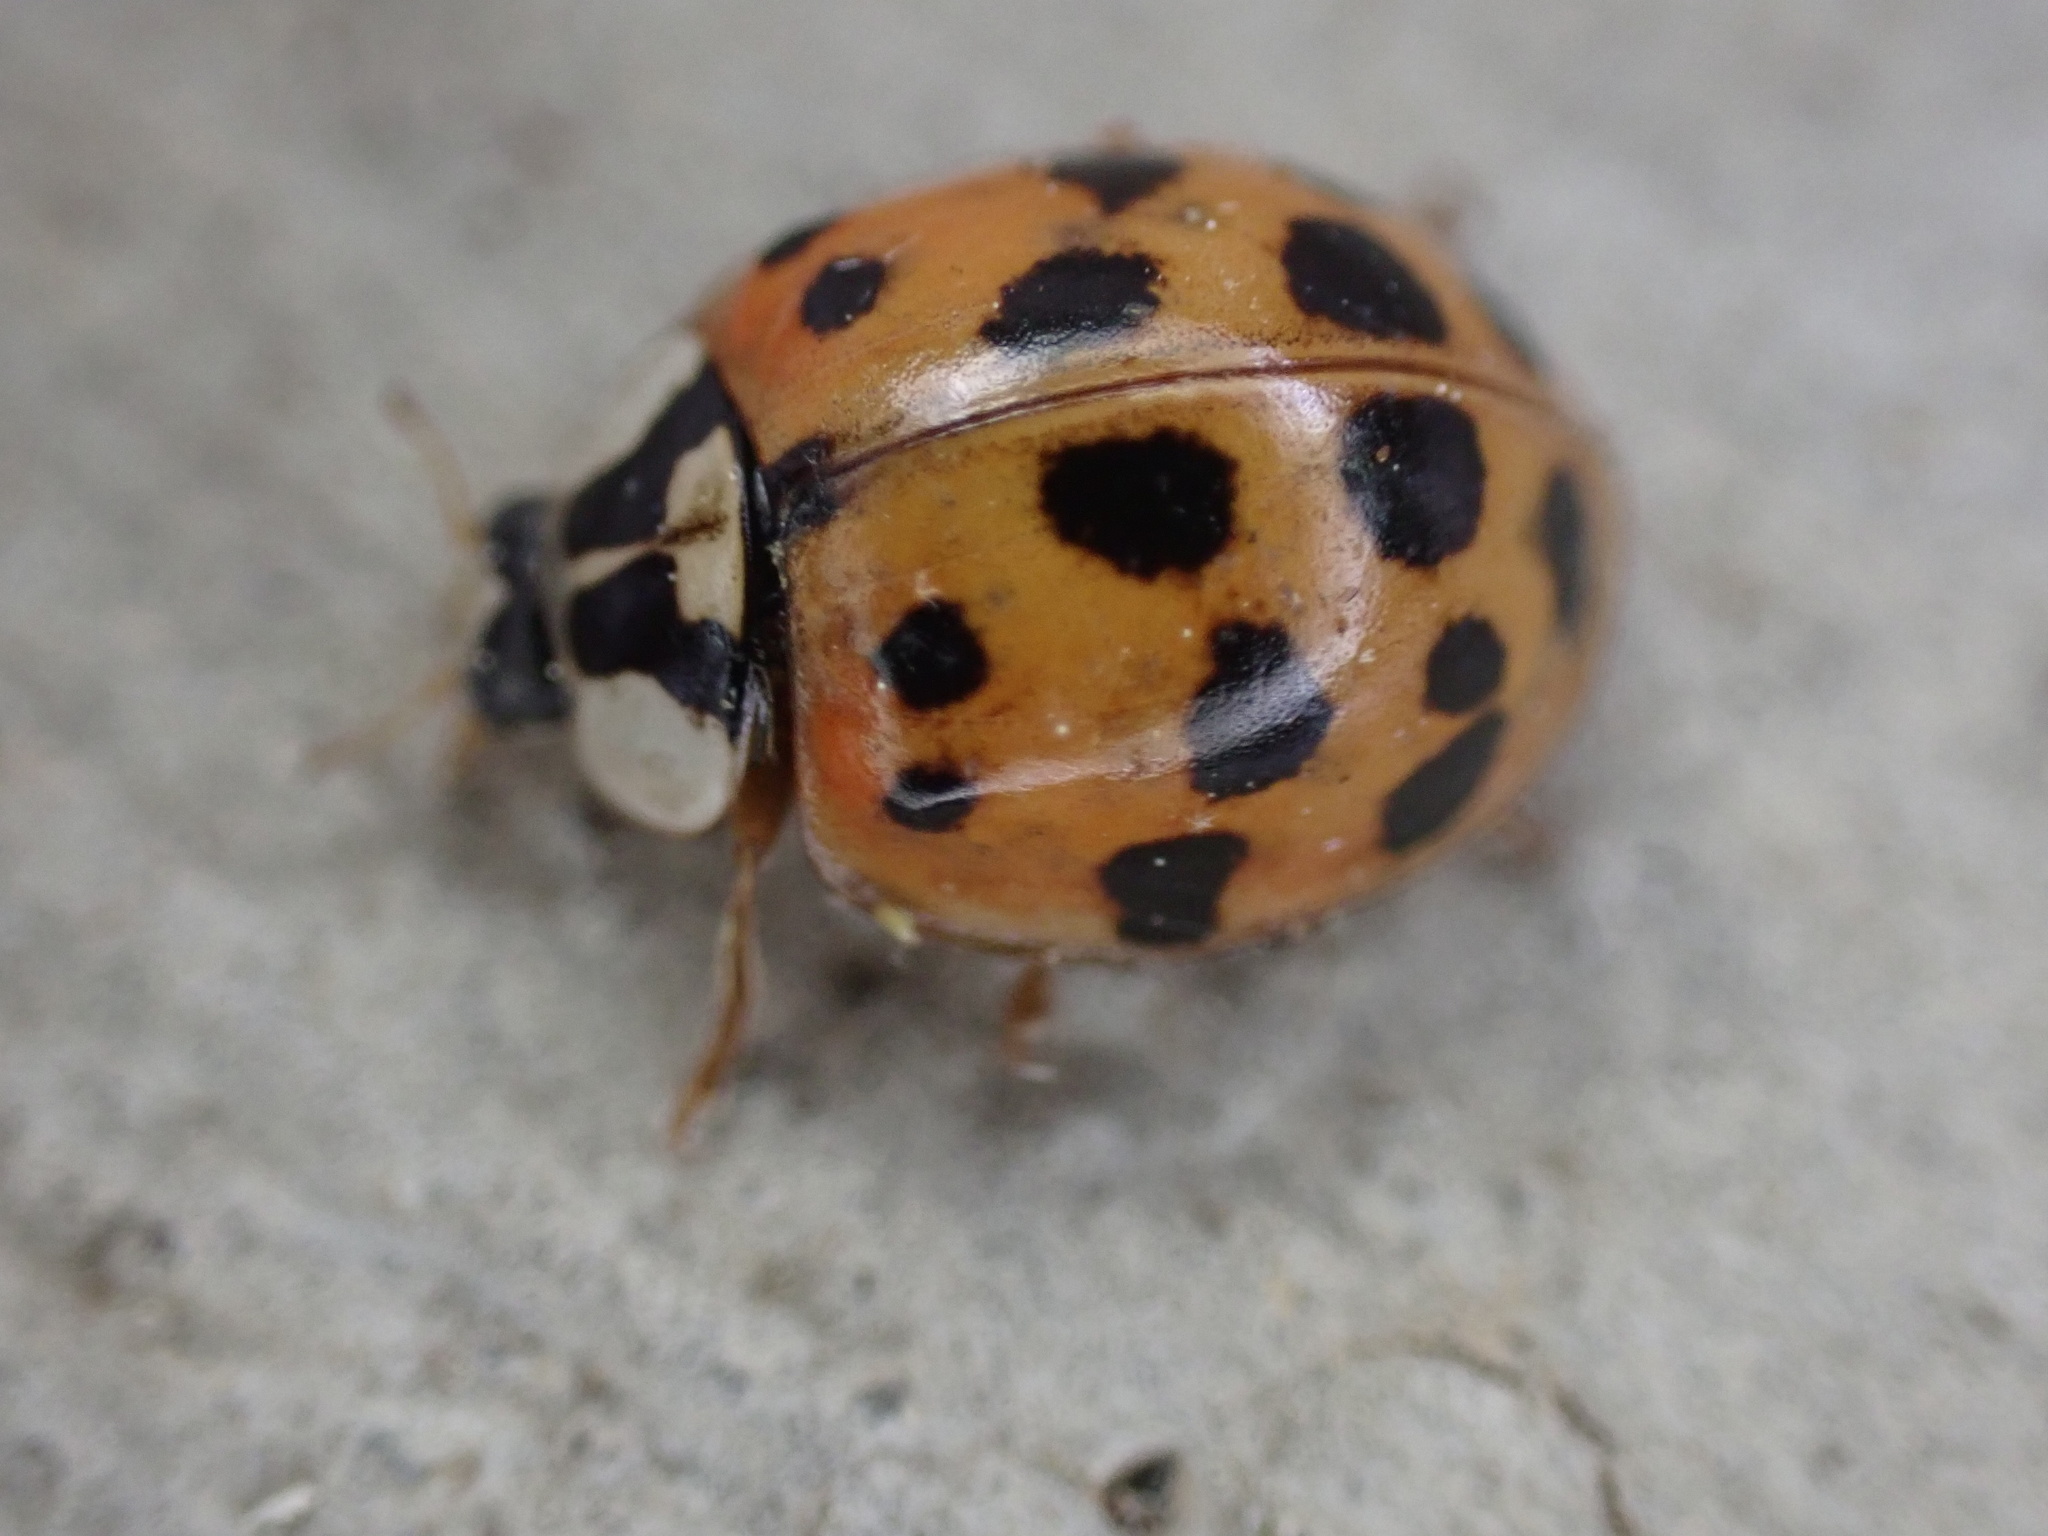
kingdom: Animalia
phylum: Arthropoda
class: Insecta
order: Coleoptera
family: Coccinellidae
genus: Harmonia
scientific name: Harmonia axyridis
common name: Harlequin ladybird
